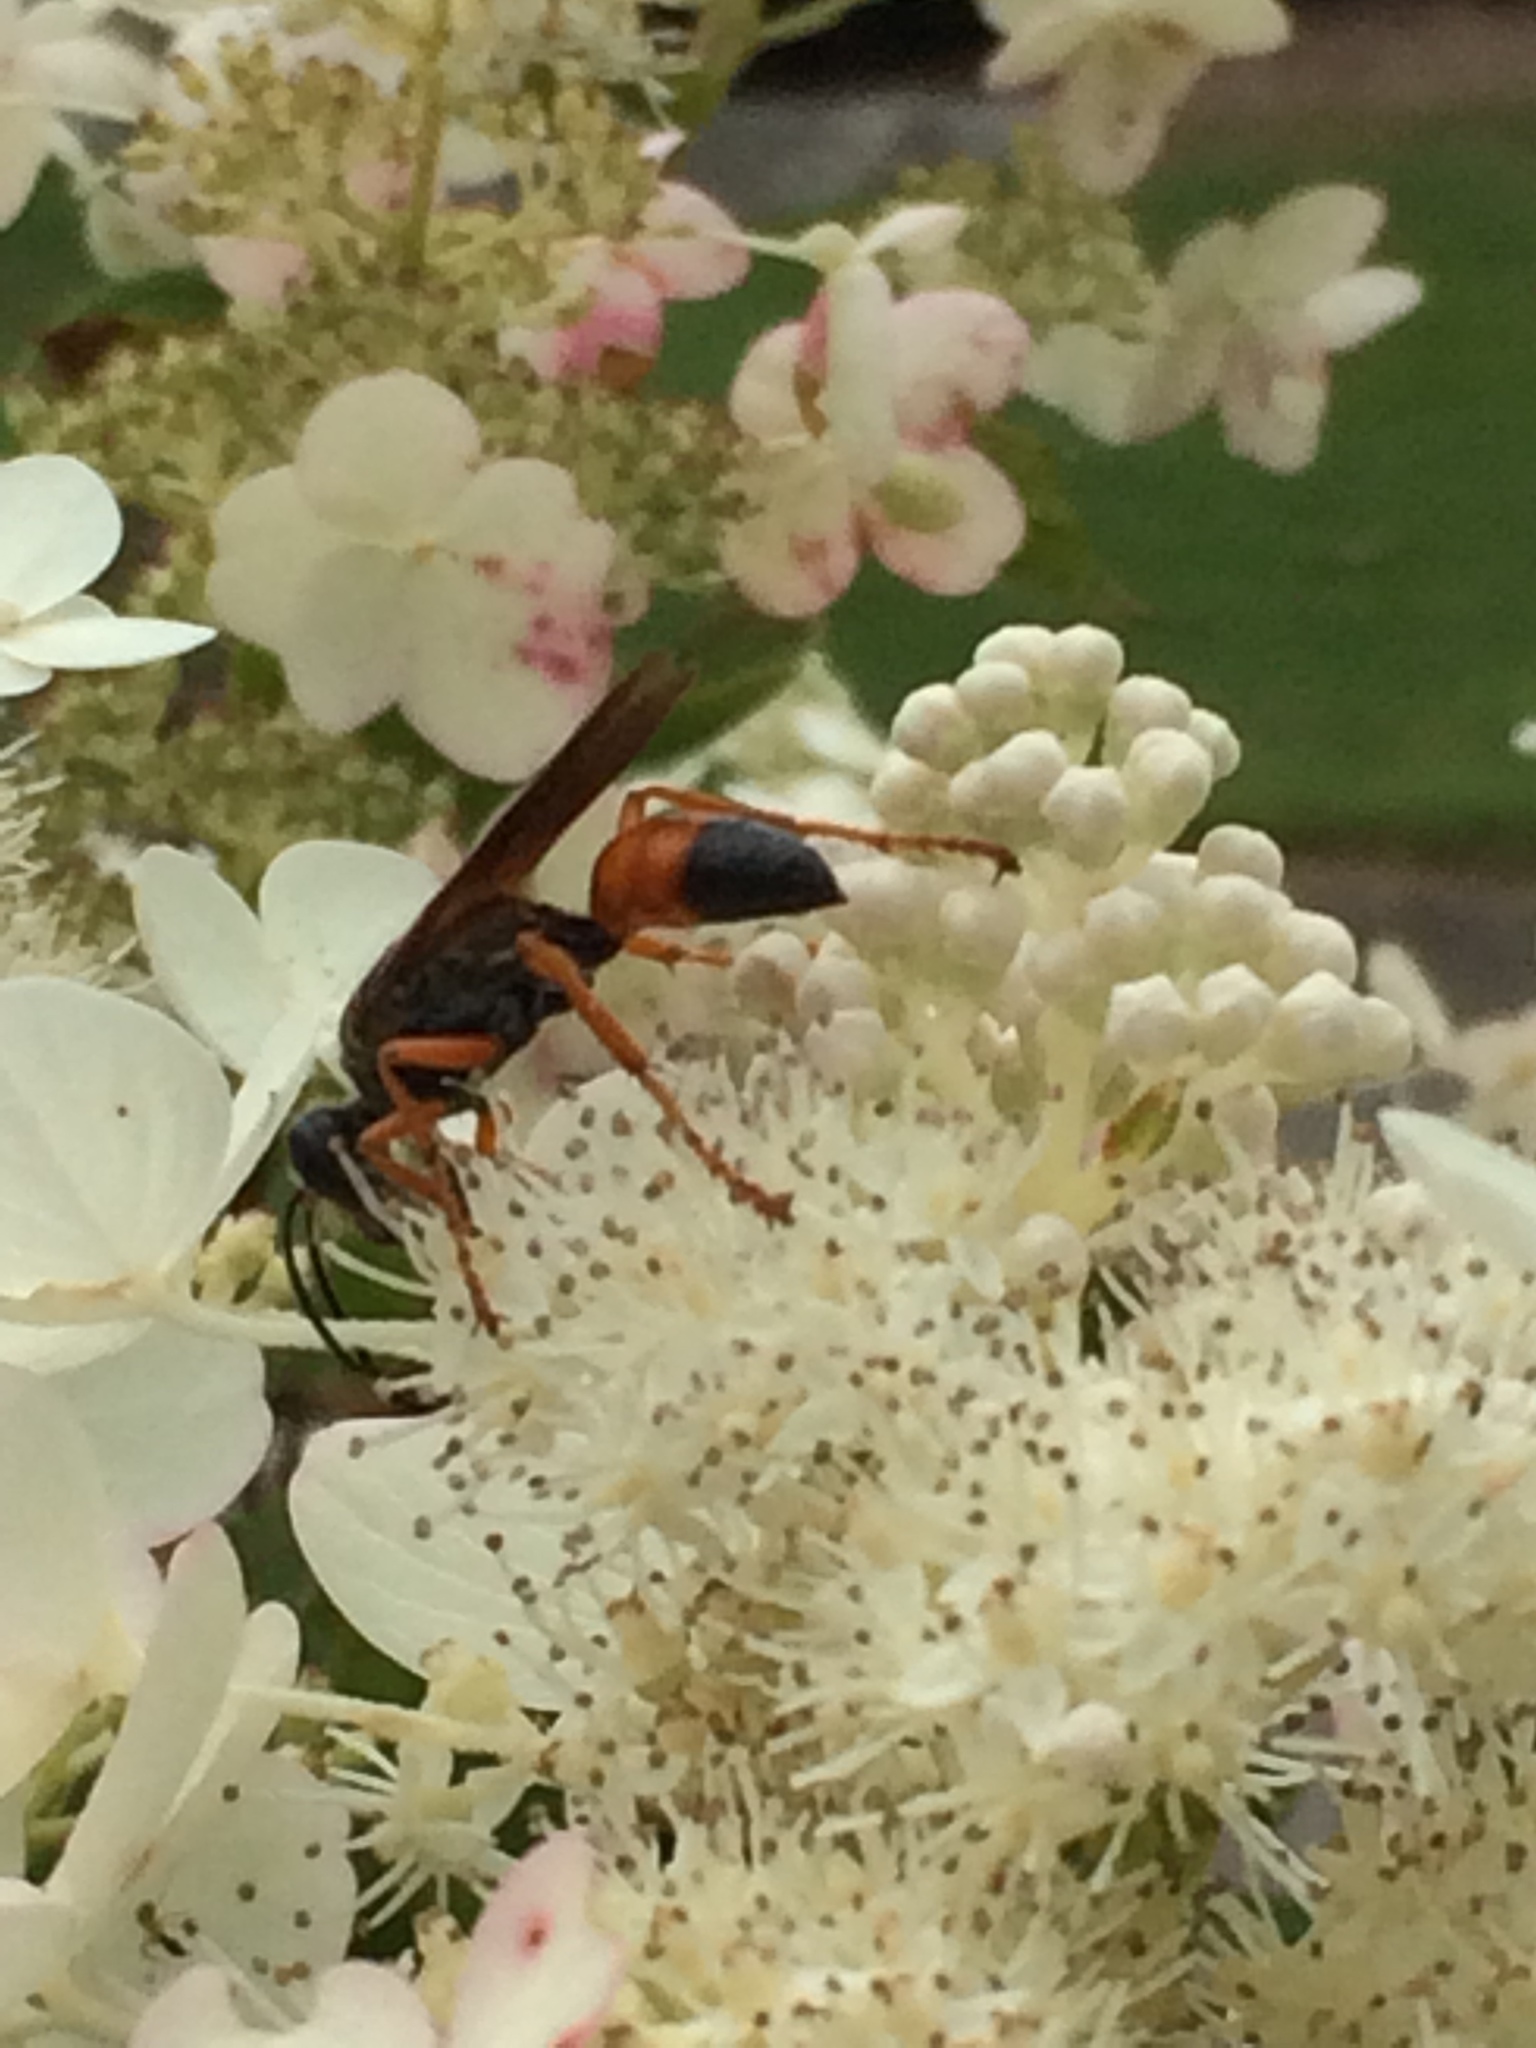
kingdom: Animalia
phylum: Arthropoda
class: Insecta
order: Hymenoptera
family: Sphecidae
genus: Sphex
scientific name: Sphex ichneumoneus
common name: Great golden digger wasp
